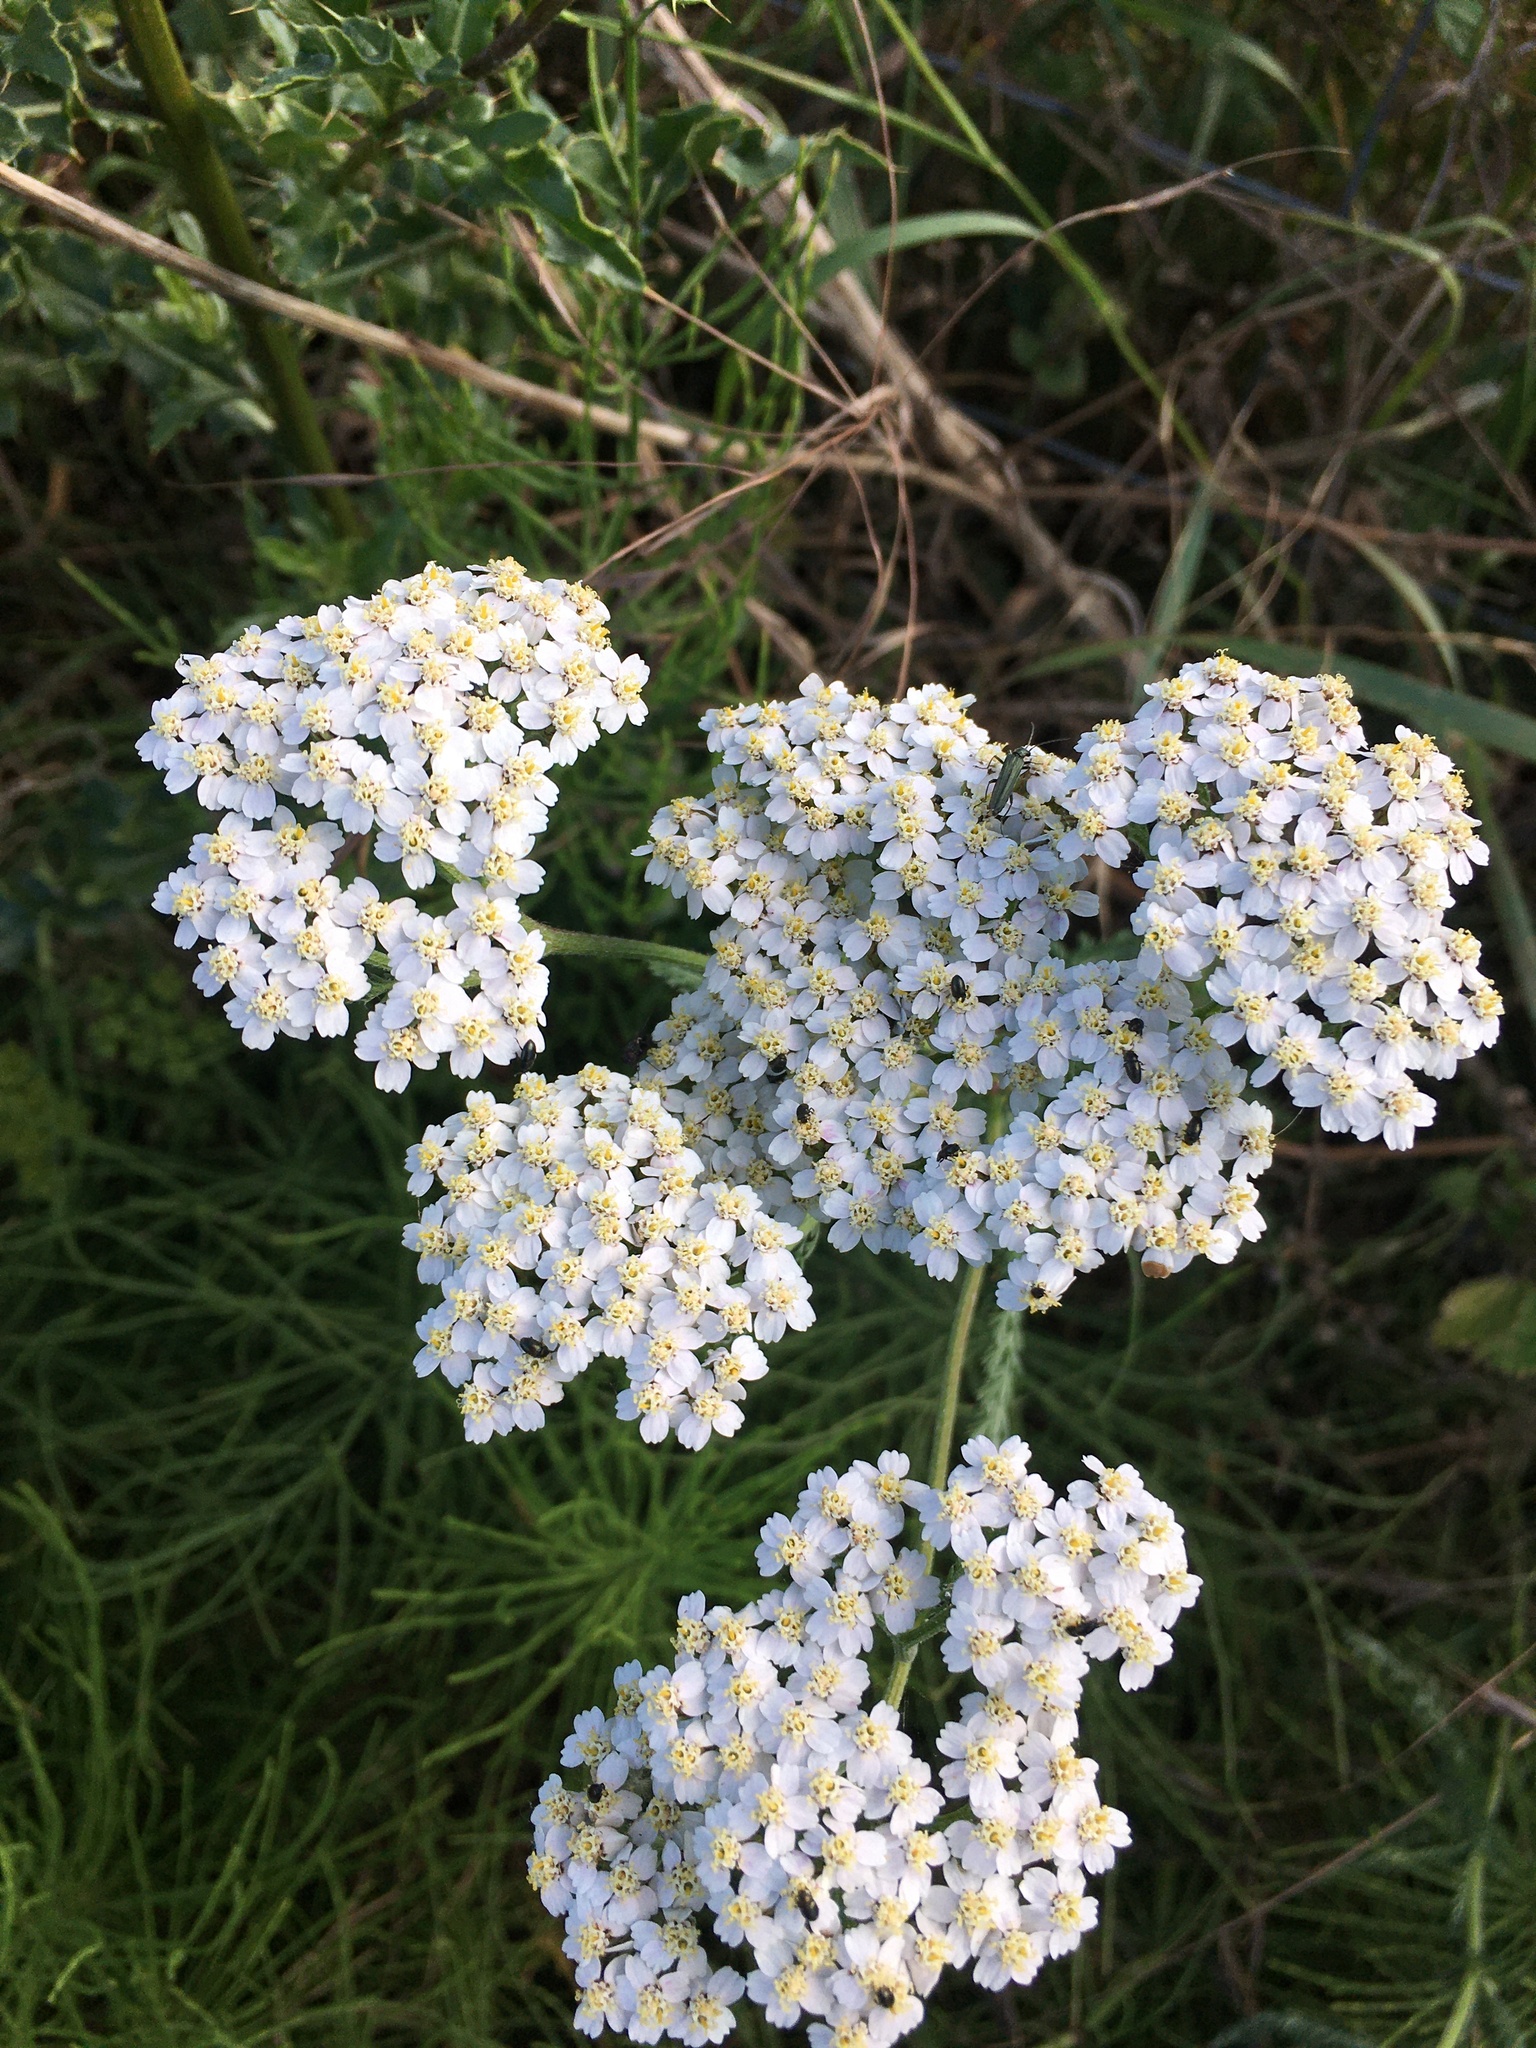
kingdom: Plantae
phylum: Tracheophyta
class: Magnoliopsida
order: Asterales
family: Asteraceae
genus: Achillea
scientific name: Achillea millefolium
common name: Yarrow
